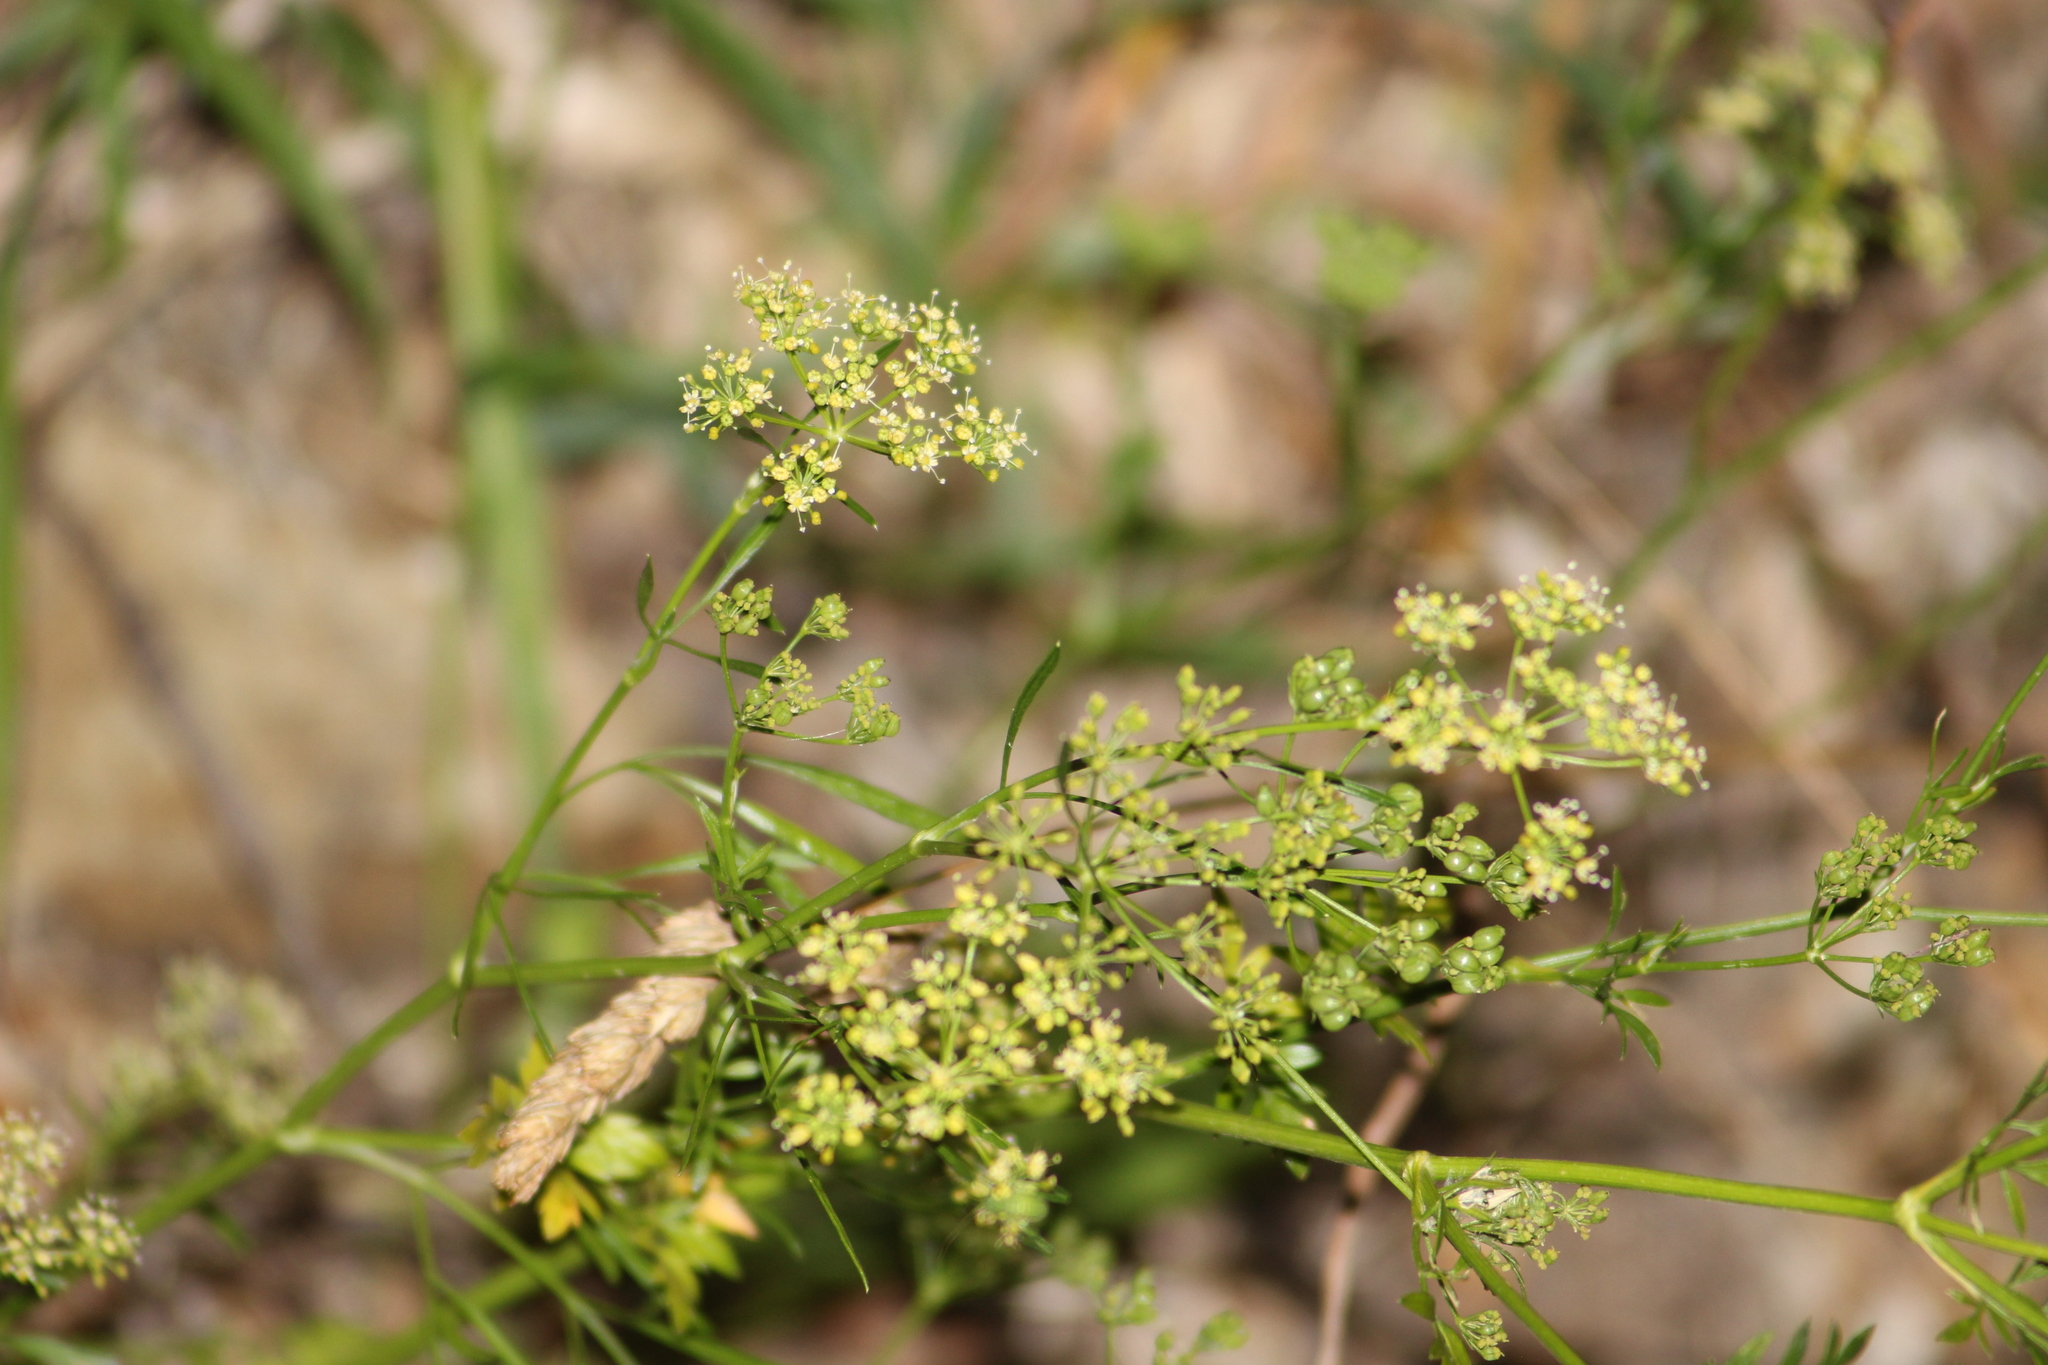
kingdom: Plantae
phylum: Tracheophyta
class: Magnoliopsida
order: Apiales
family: Apiaceae
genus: Petroselinum
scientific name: Petroselinum crispum
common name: Parsley
